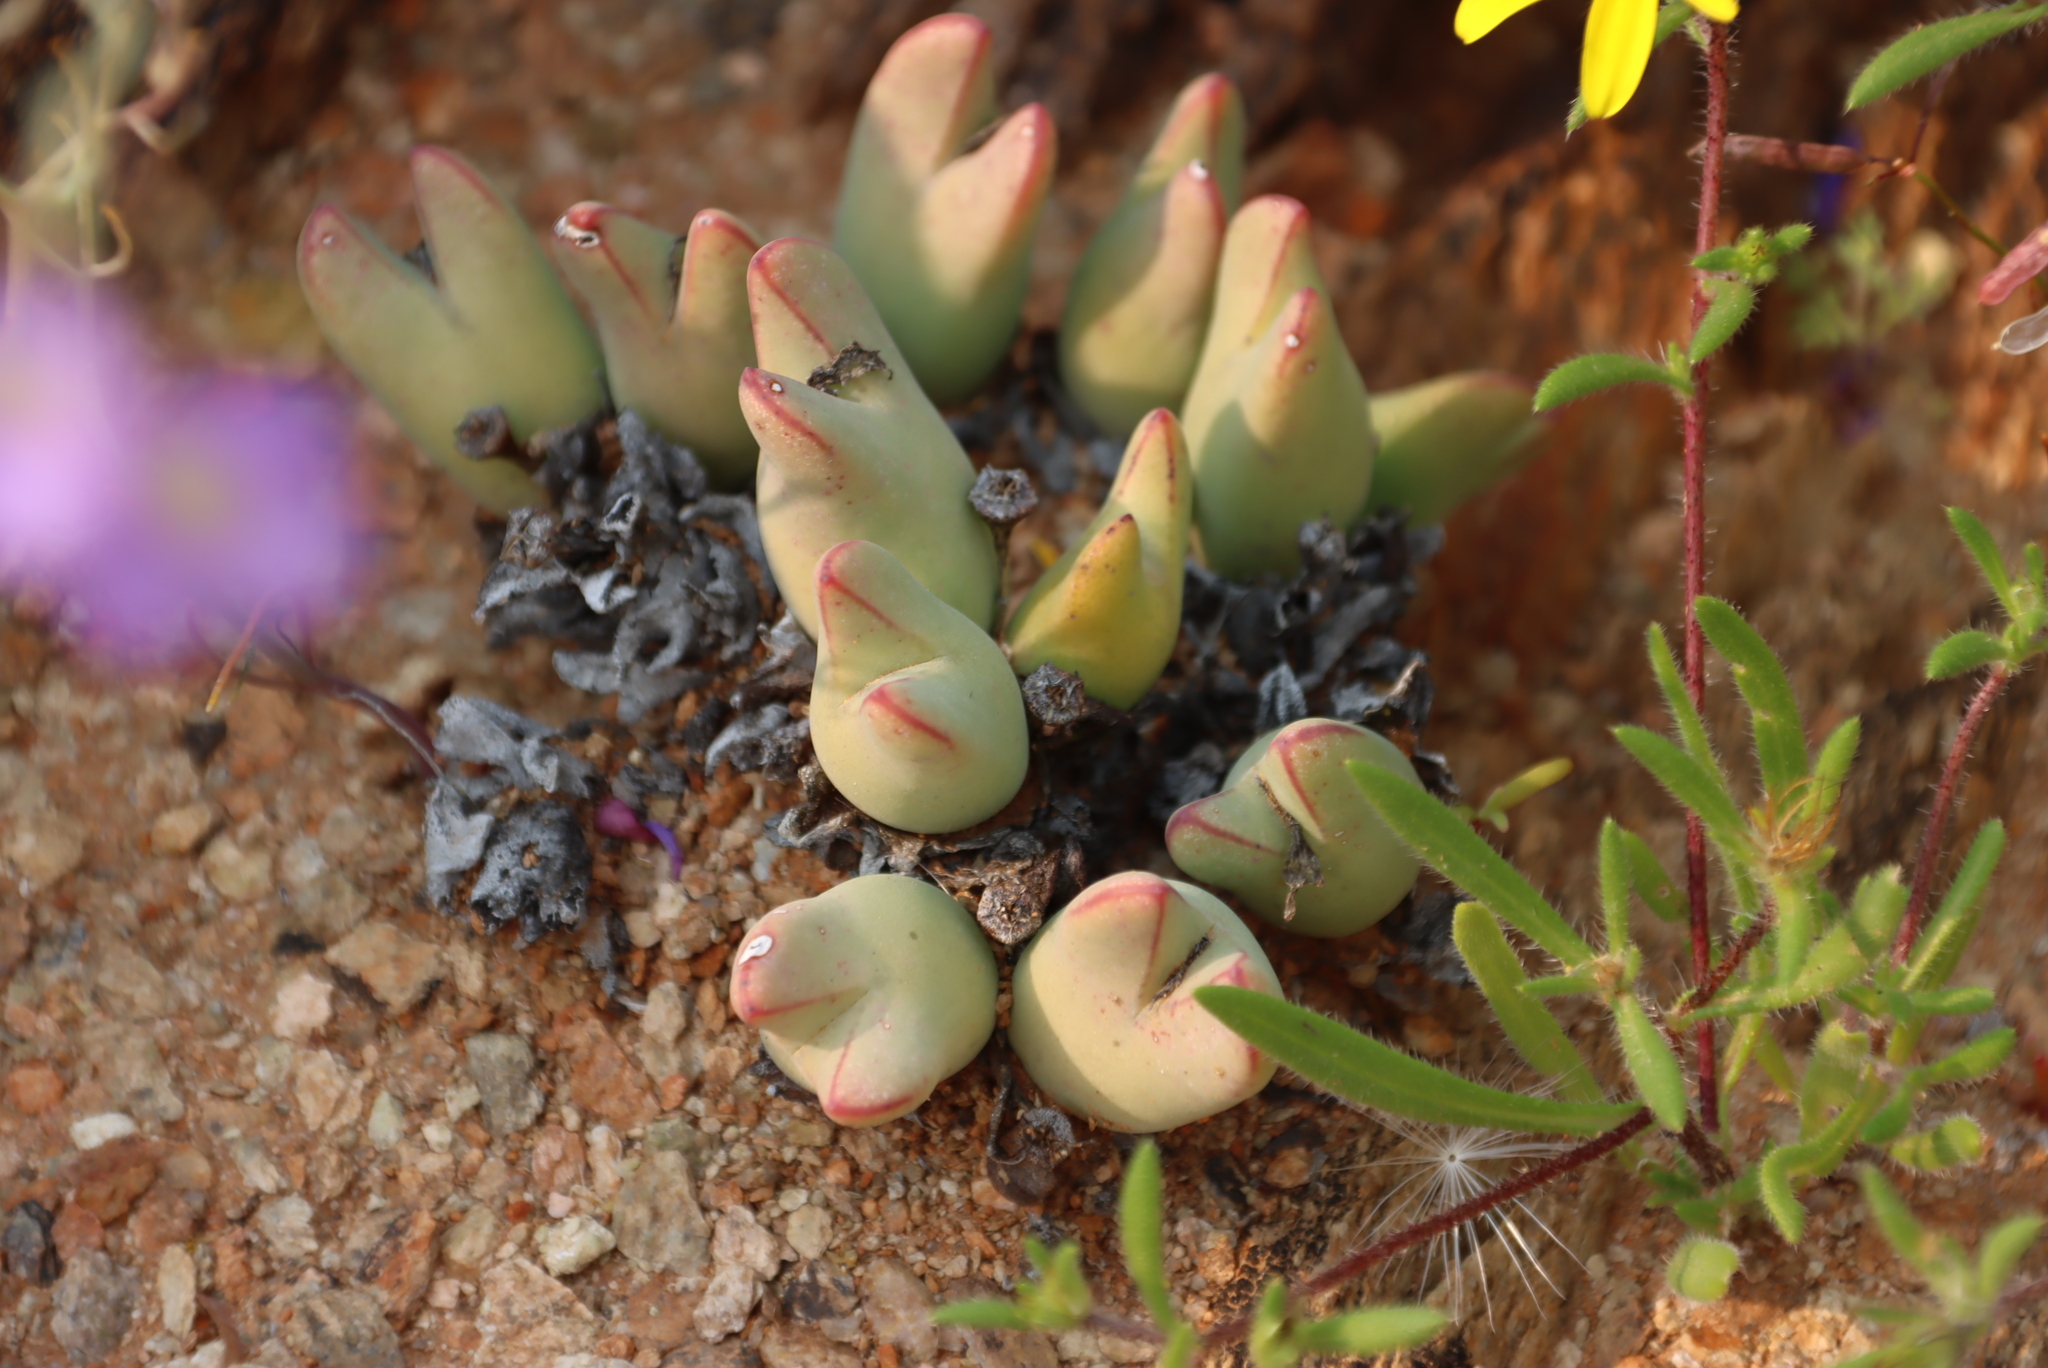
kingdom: Plantae
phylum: Tracheophyta
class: Magnoliopsida
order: Caryophyllales
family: Aizoaceae
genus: Conophytum
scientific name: Conophytum bilobum
